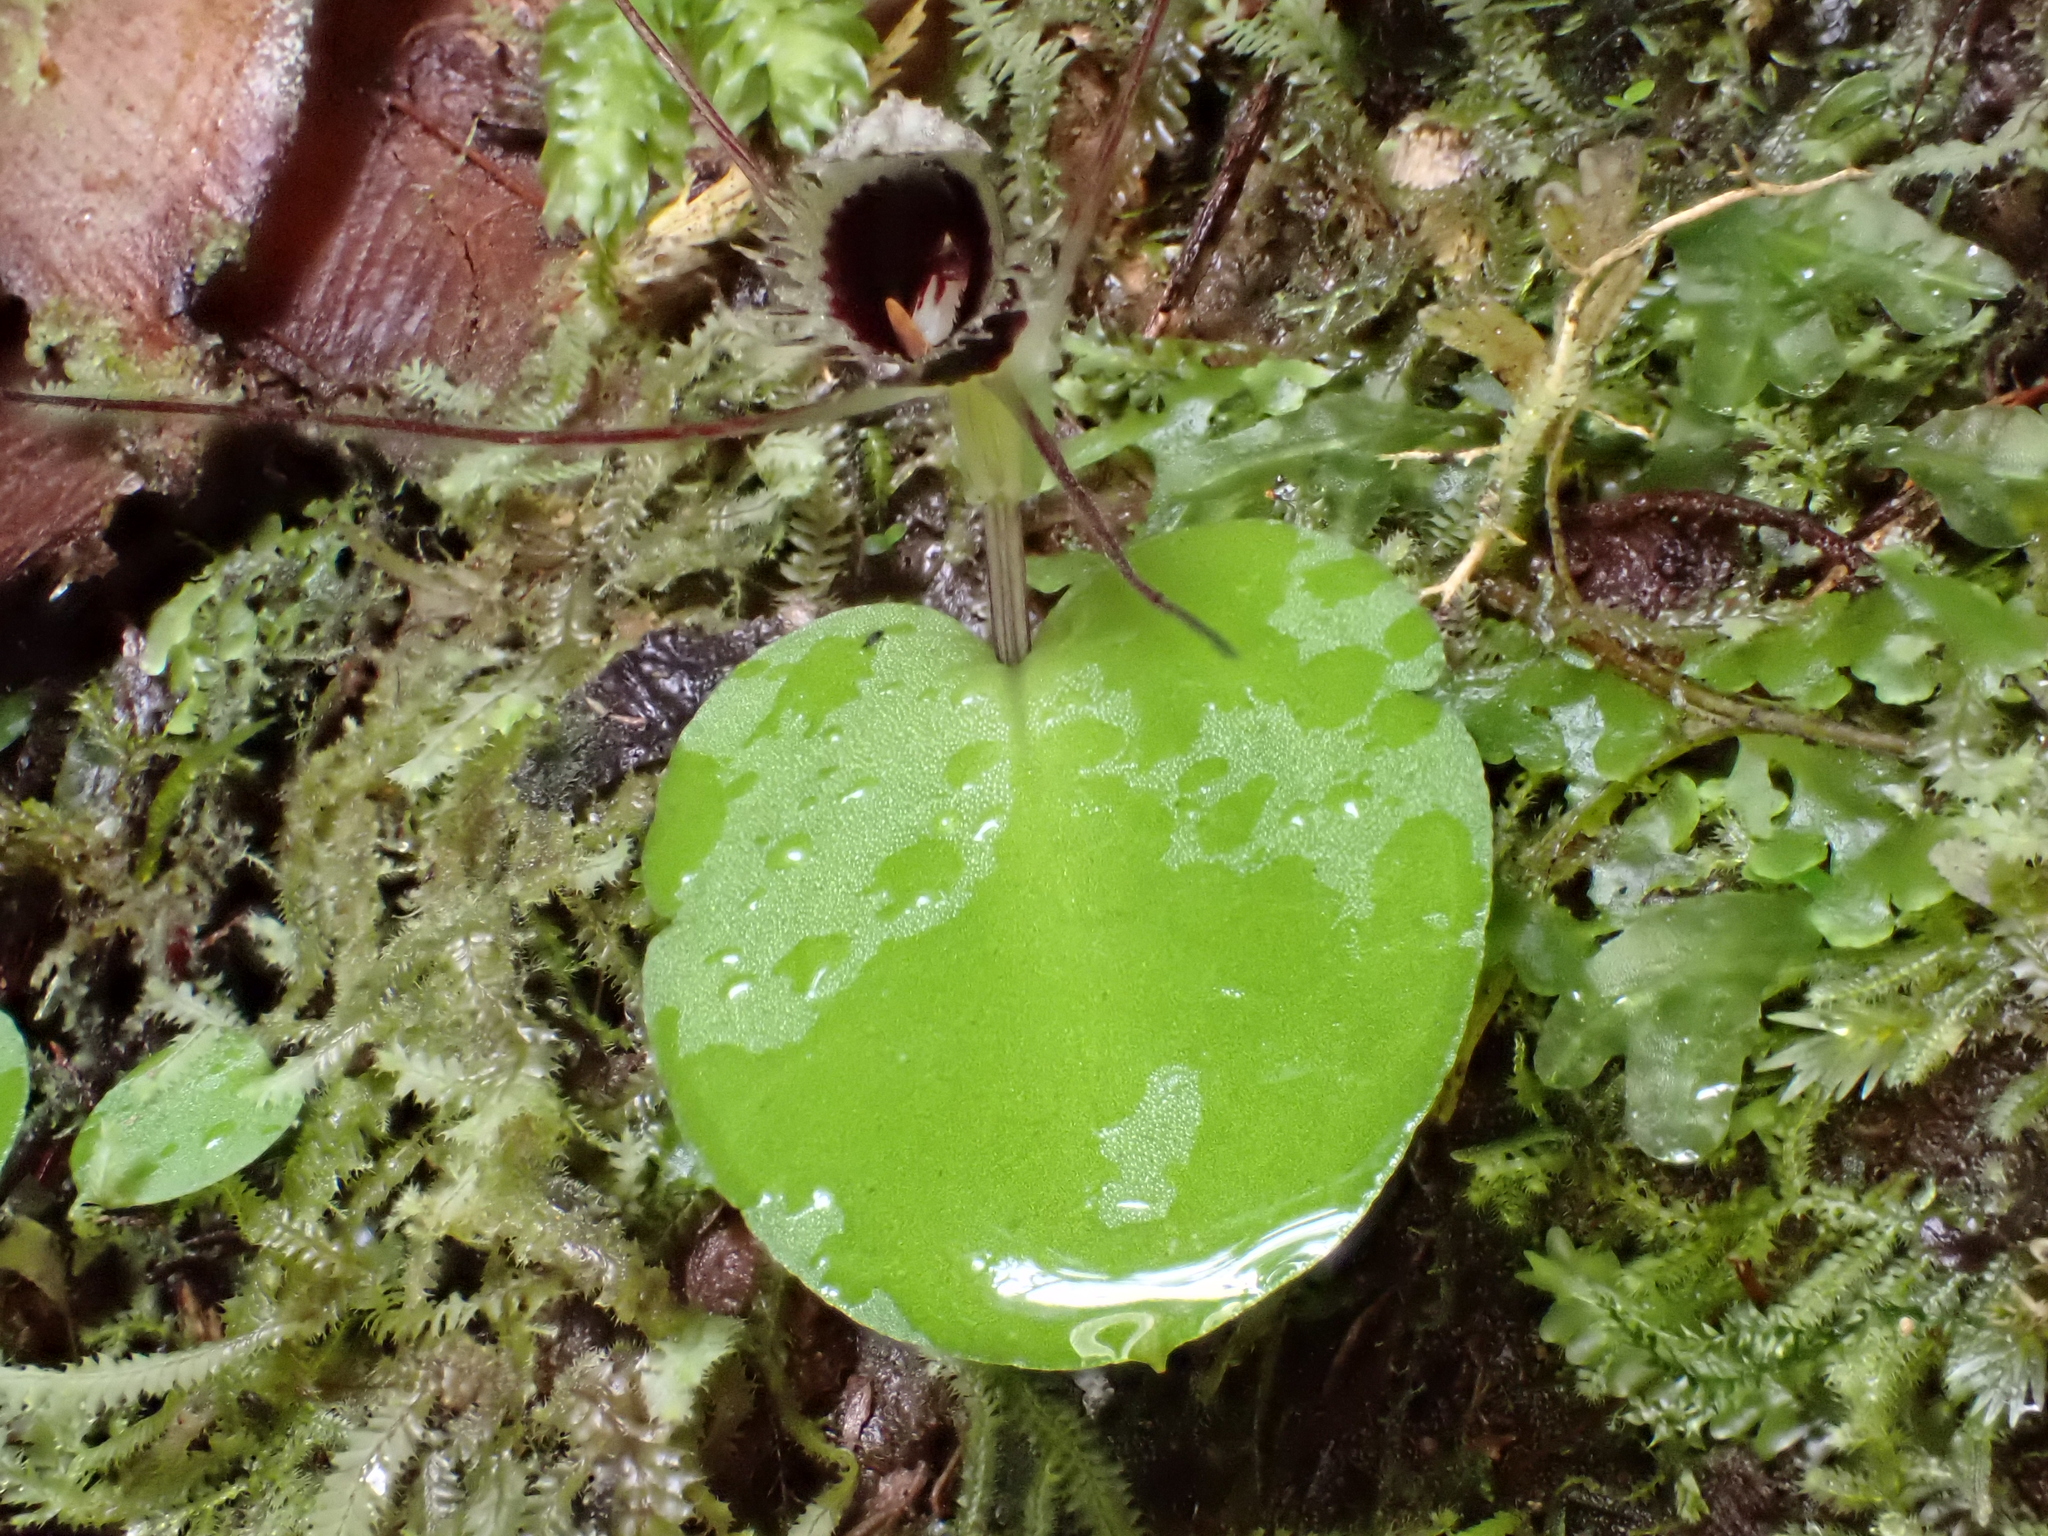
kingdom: Plantae
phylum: Tracheophyta
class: Liliopsida
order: Asparagales
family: Orchidaceae
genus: Corybas
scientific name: Corybas oblongus
